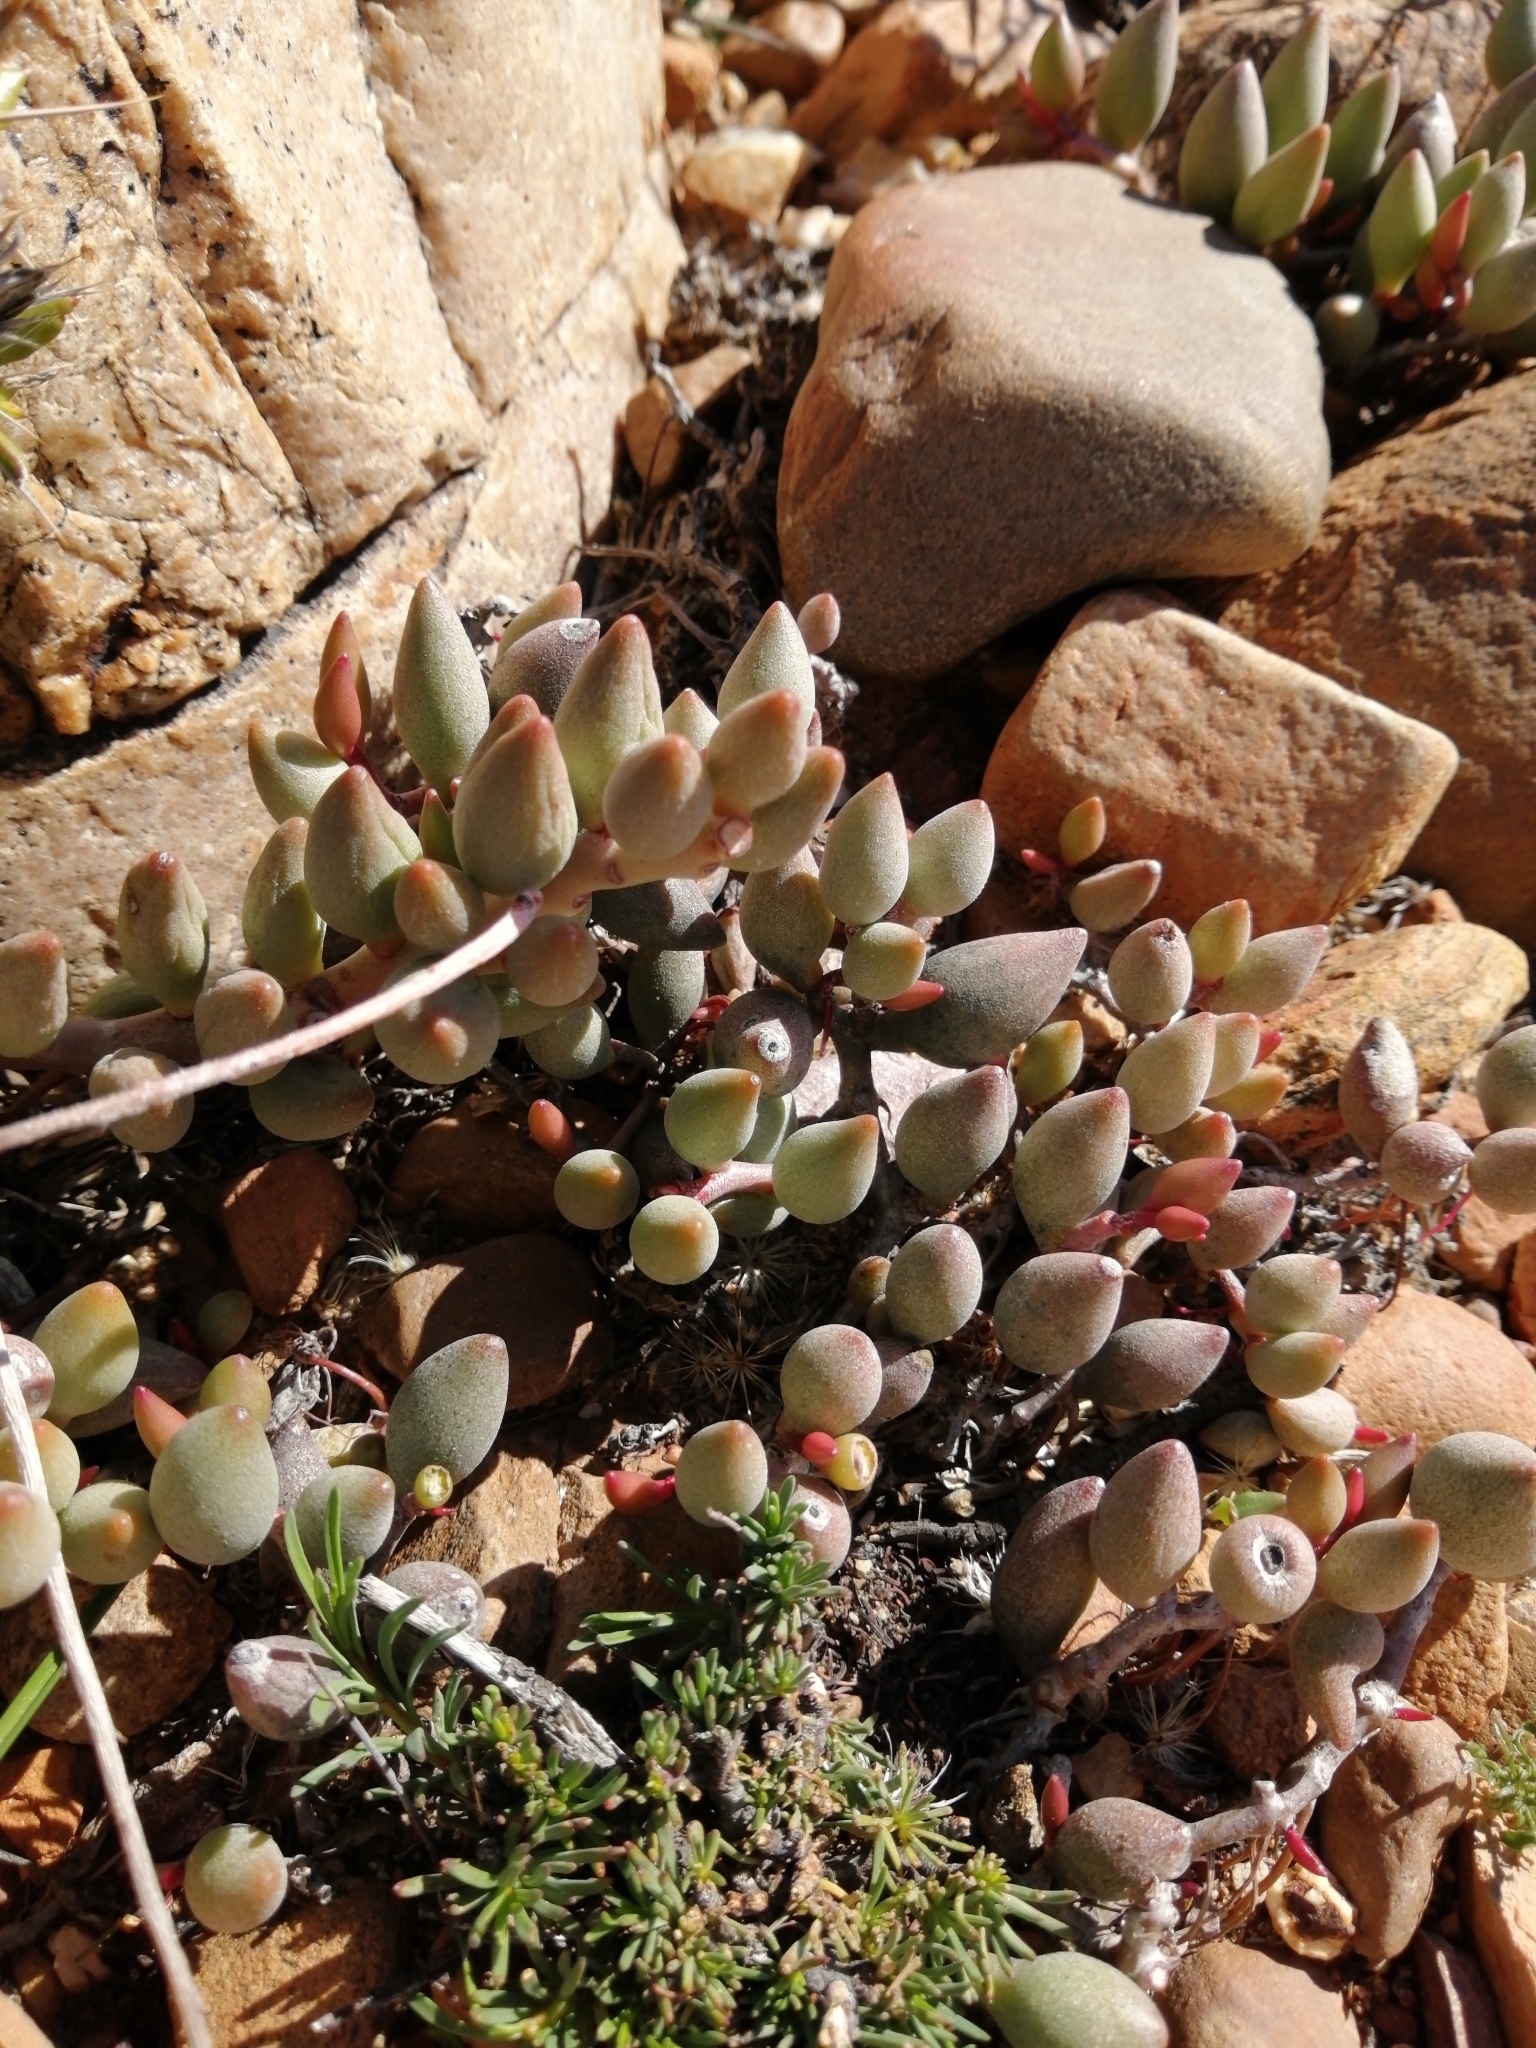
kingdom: Plantae
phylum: Tracheophyta
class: Magnoliopsida
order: Saxifragales
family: Crassulaceae
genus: Adromischus
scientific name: Adromischus filicaulis
